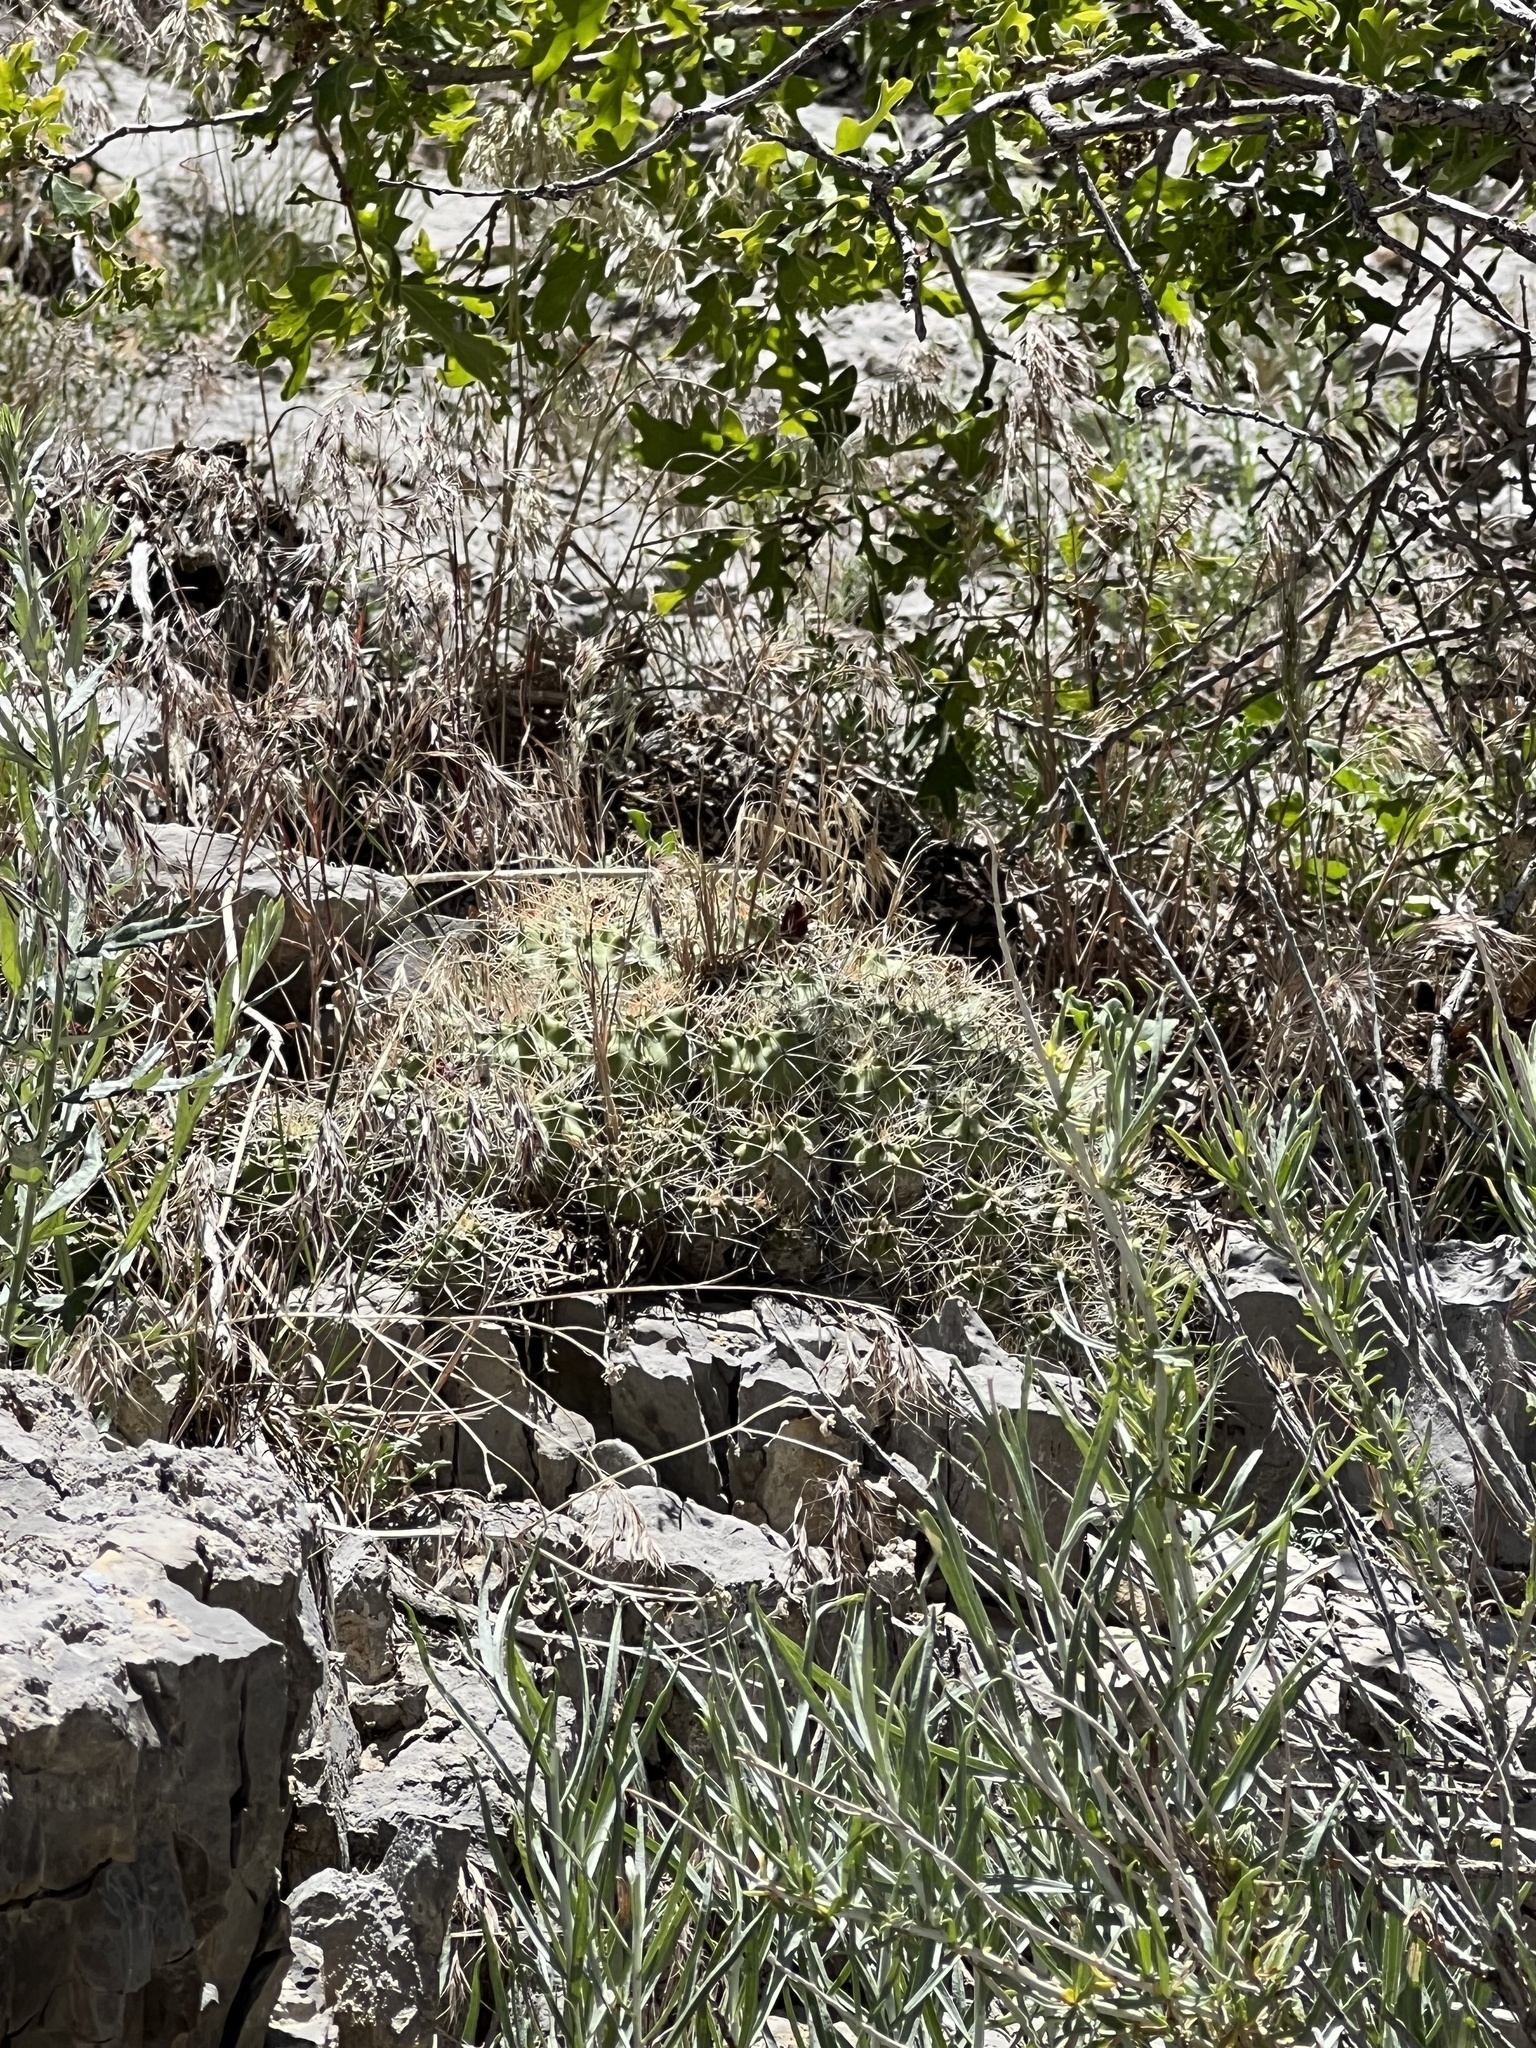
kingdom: Plantae
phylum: Tracheophyta
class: Magnoliopsida
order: Caryophyllales
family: Cactaceae
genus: Echinocereus
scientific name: Echinocereus triglochidiatus
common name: Claretcup hedgehog
